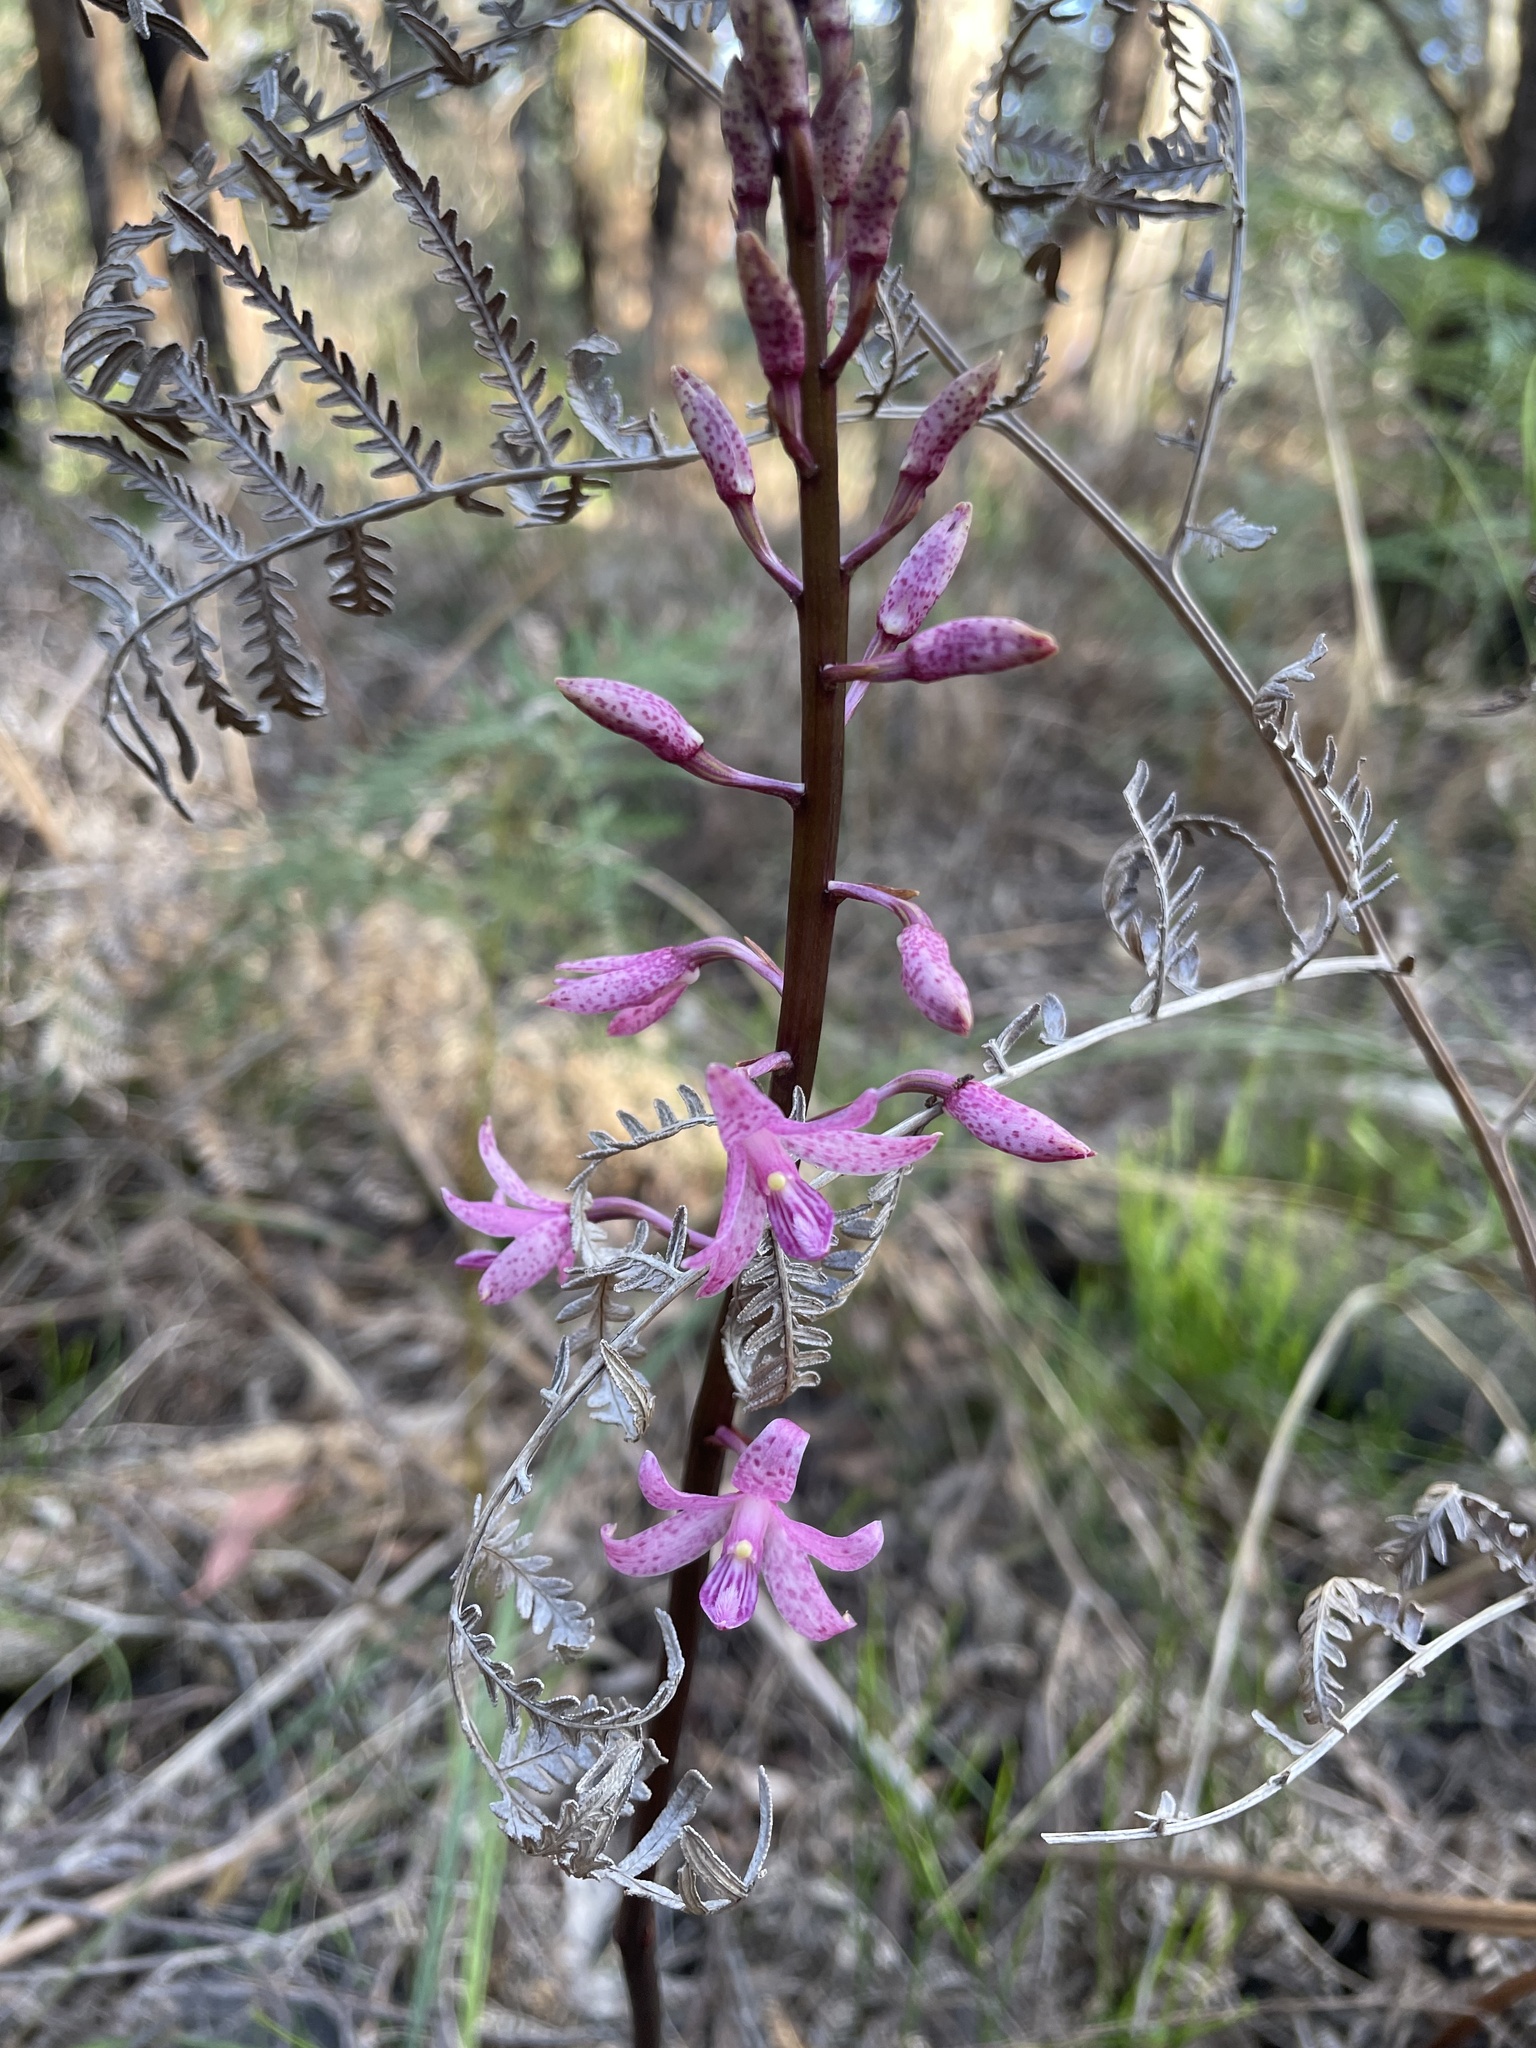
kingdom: Plantae
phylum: Tracheophyta
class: Liliopsida
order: Asparagales
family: Orchidaceae
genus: Dipodium
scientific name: Dipodium roseum
